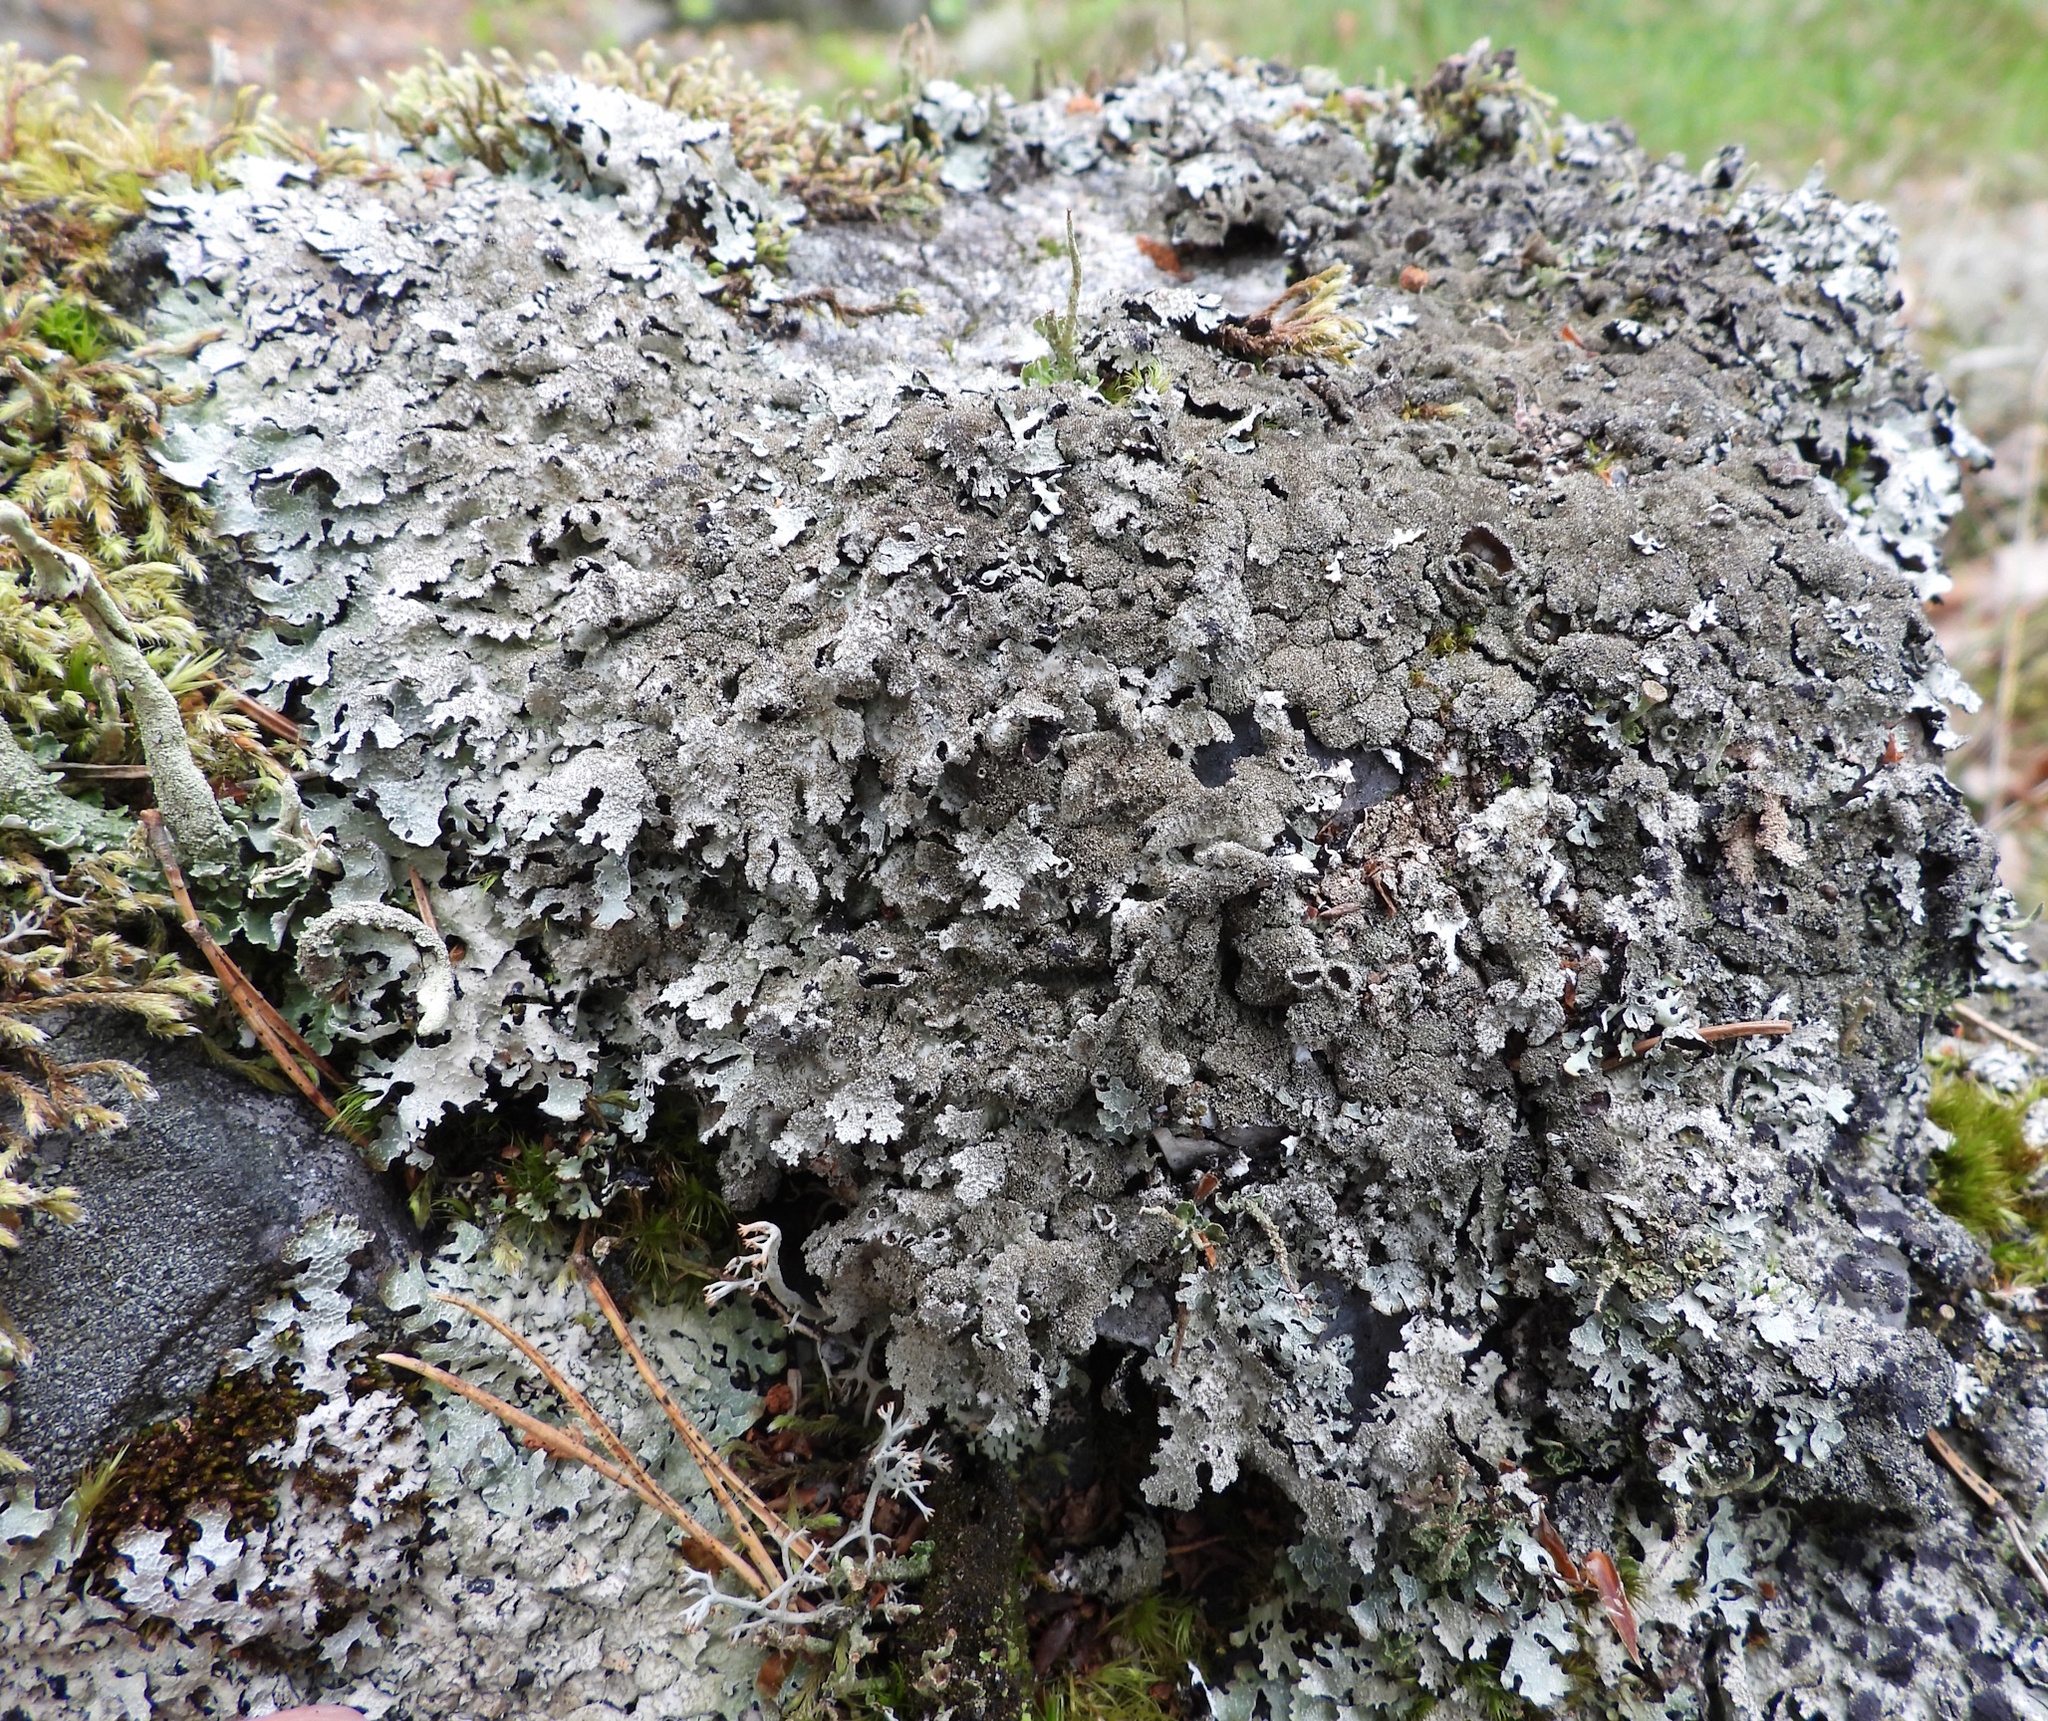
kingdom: Fungi
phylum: Ascomycota
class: Lecanoromycetes
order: Lecanorales
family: Parmeliaceae
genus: Parmelia
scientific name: Parmelia saxatilis
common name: Salted shield lichen
